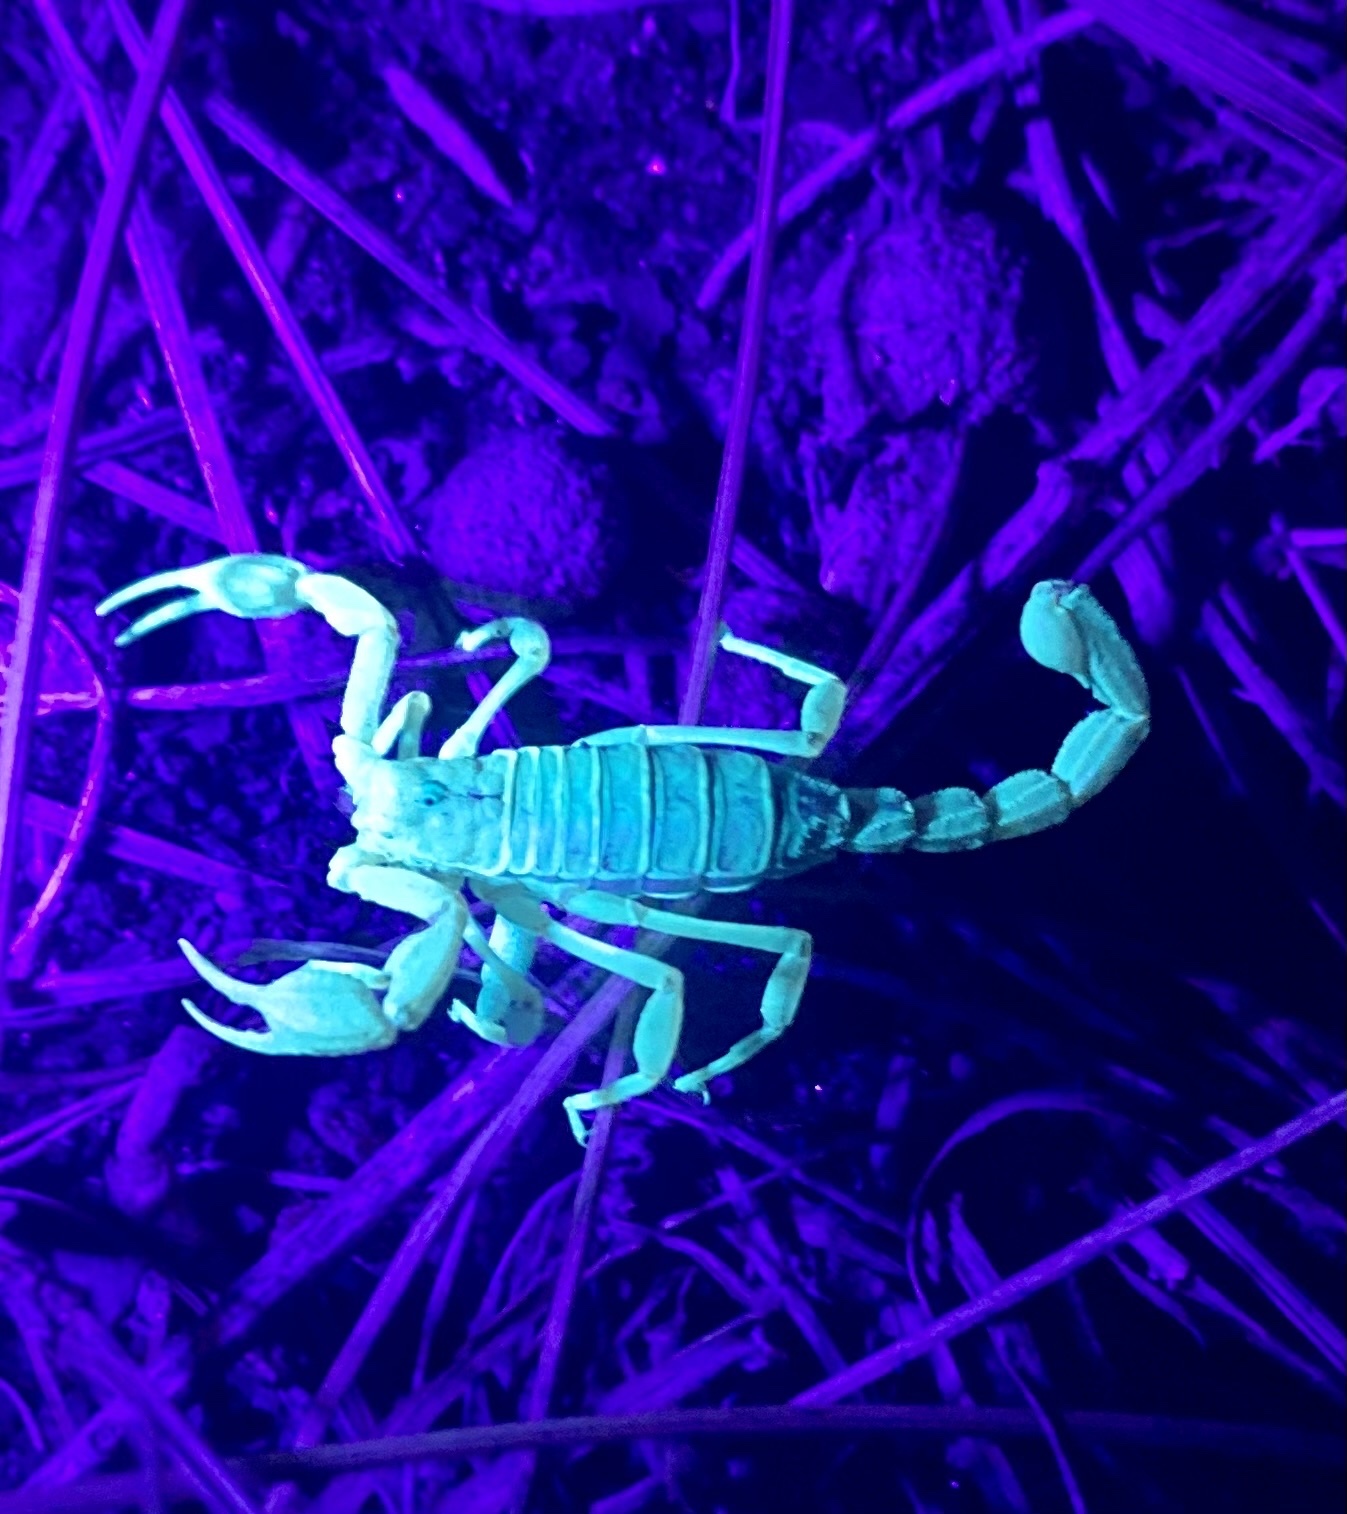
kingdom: Animalia
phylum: Arthropoda
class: Arachnida
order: Scorpiones
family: Vaejovidae
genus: Paruroctonus
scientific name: Paruroctonus boreus
